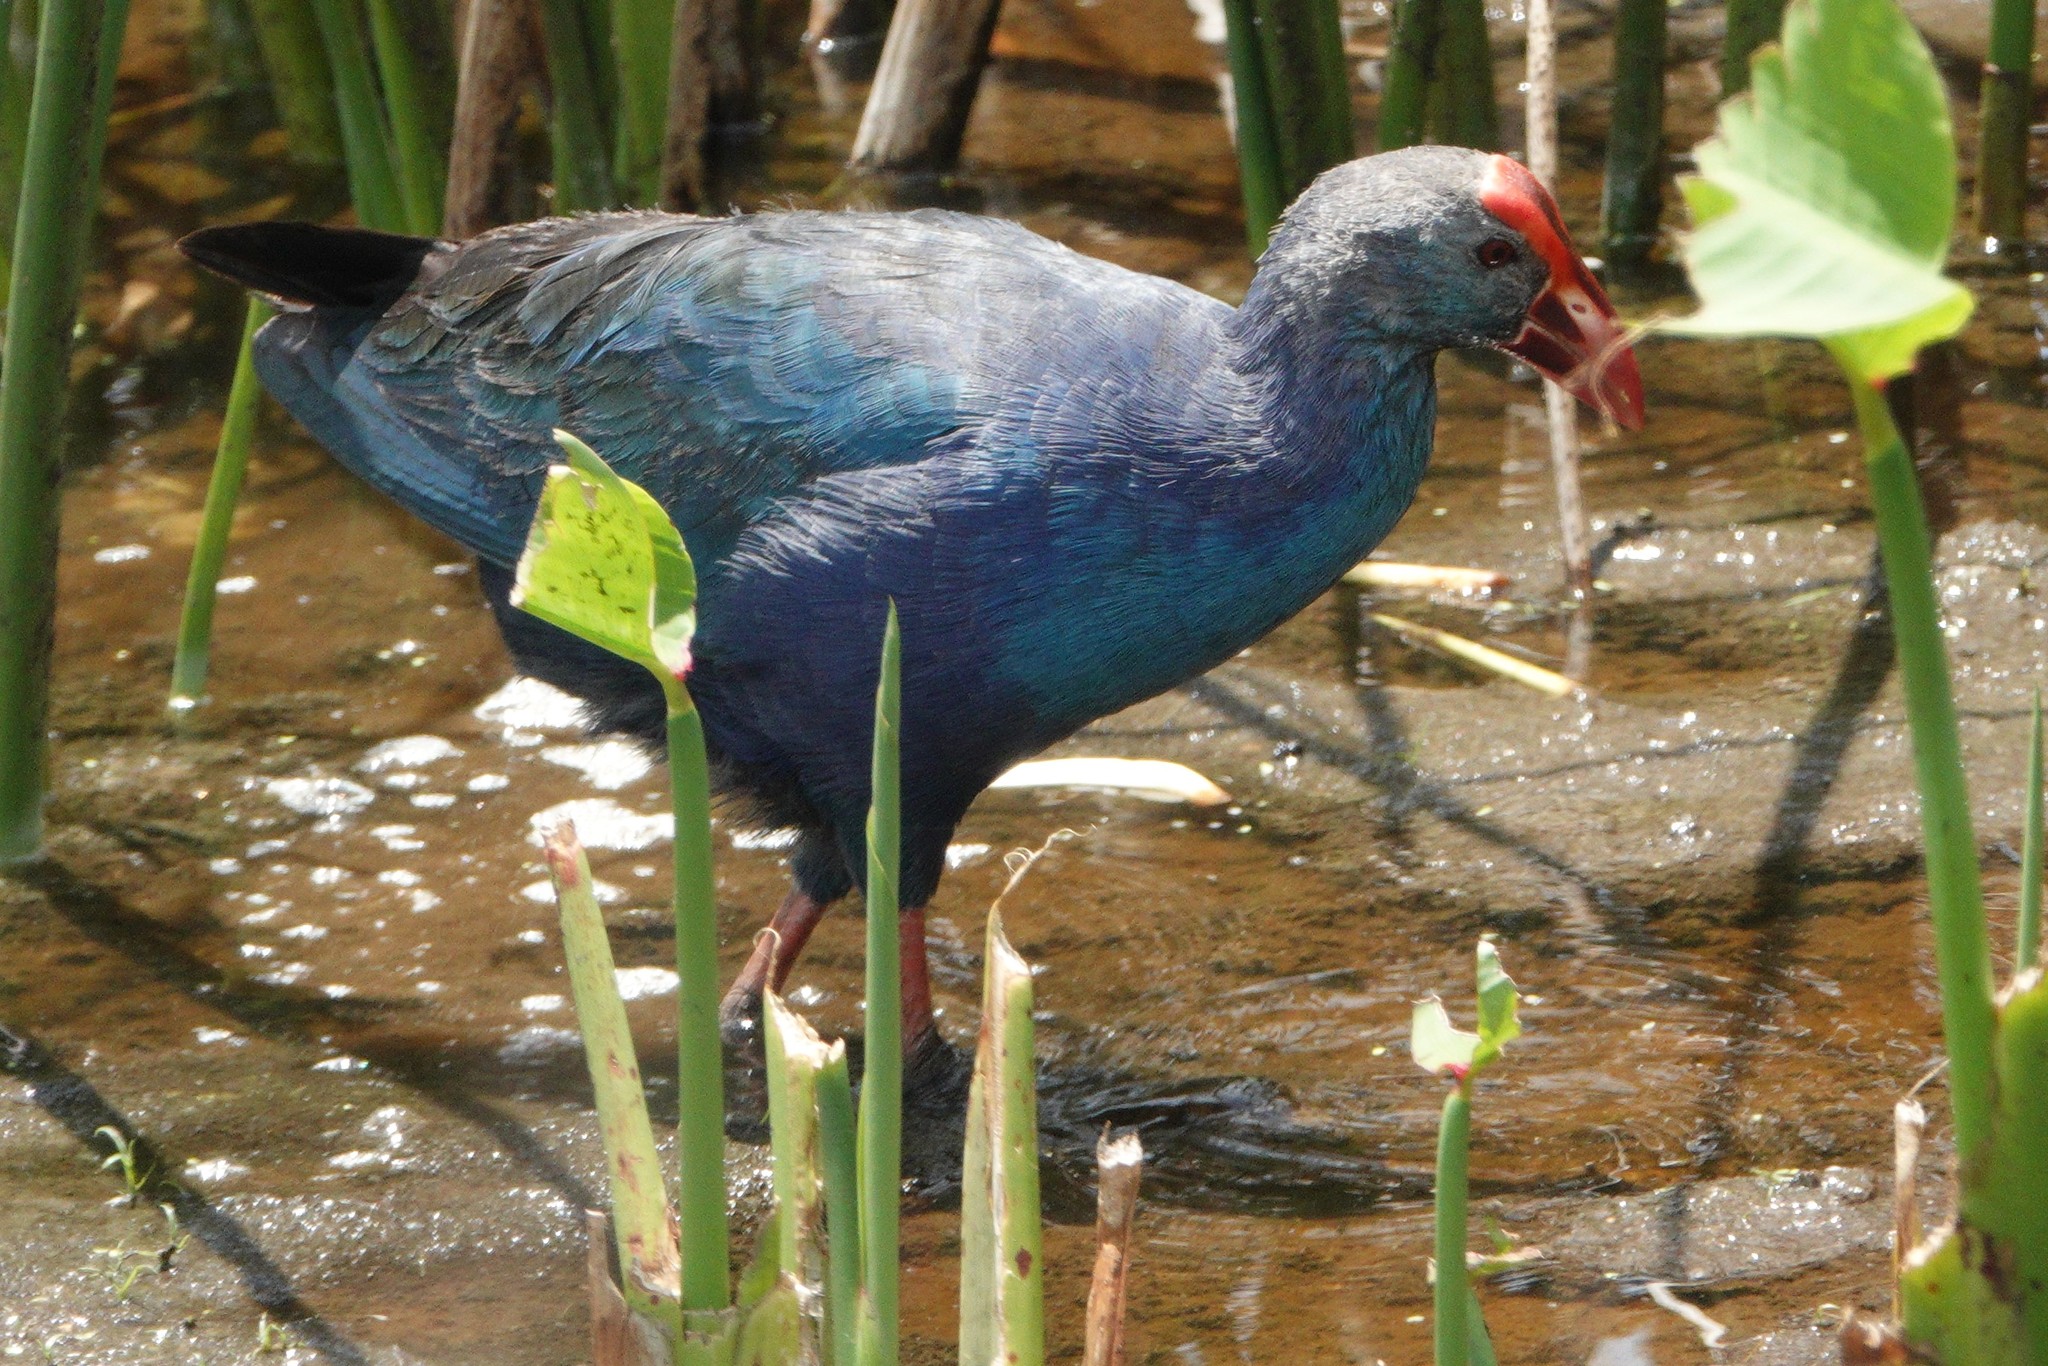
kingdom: Animalia
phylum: Chordata
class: Aves
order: Gruiformes
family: Rallidae
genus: Porphyrio
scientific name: Porphyrio porphyrio
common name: Purple swamphen
